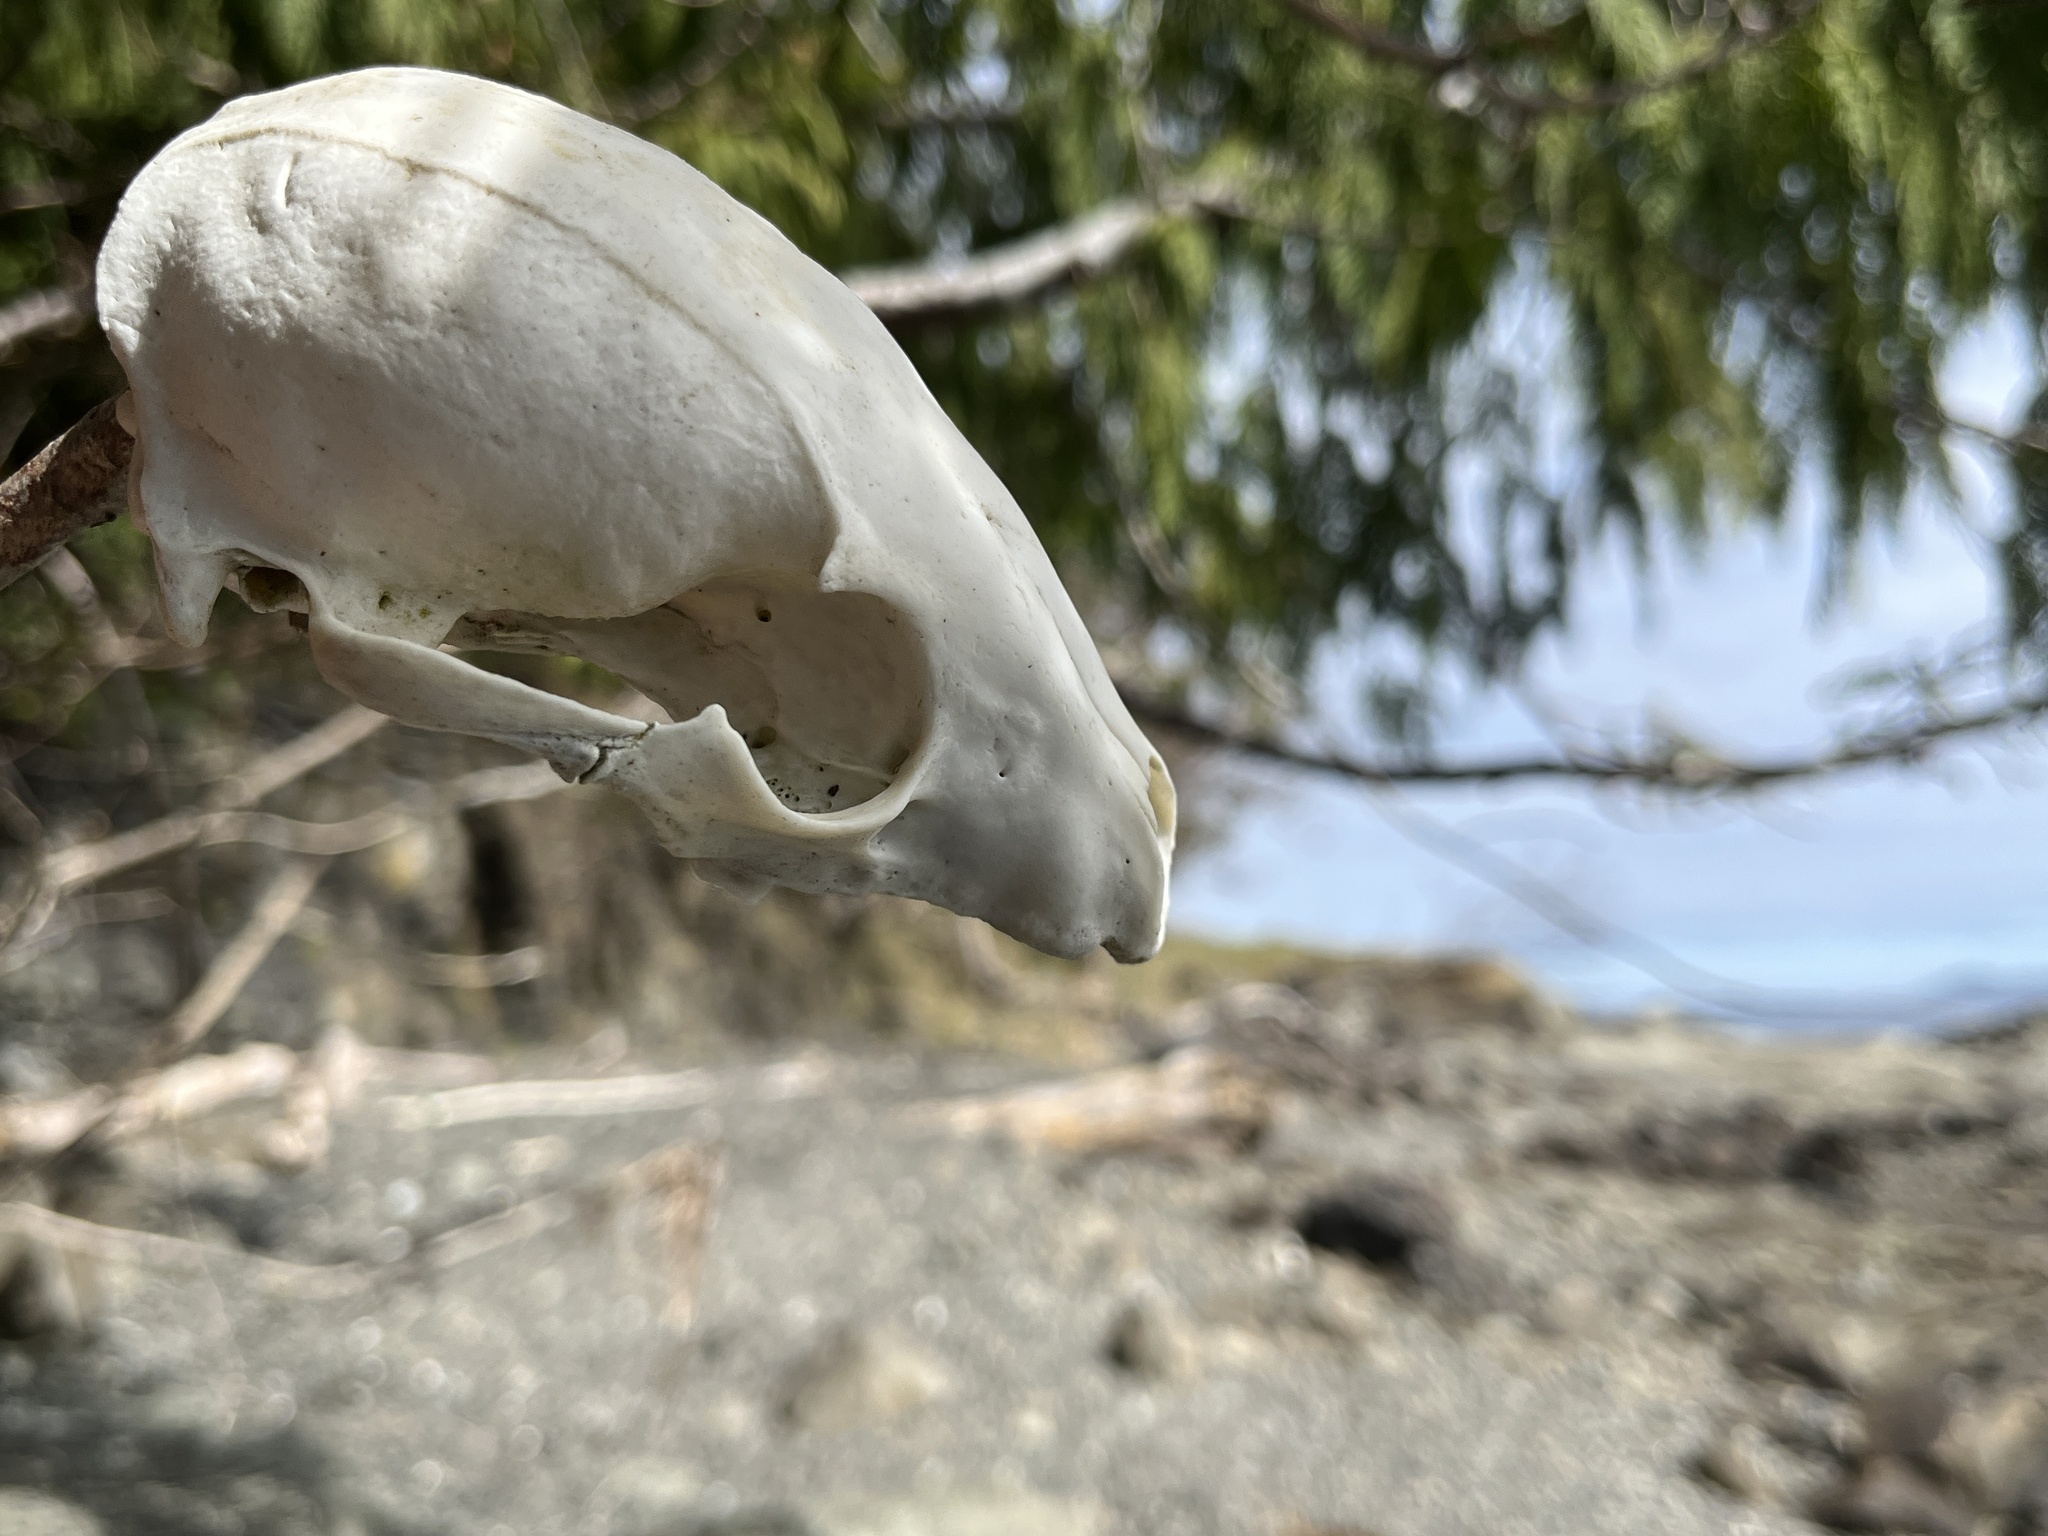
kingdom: Animalia
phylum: Chordata
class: Mammalia
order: Carnivora
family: Procyonidae
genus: Procyon
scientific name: Procyon lotor
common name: Raccoon
